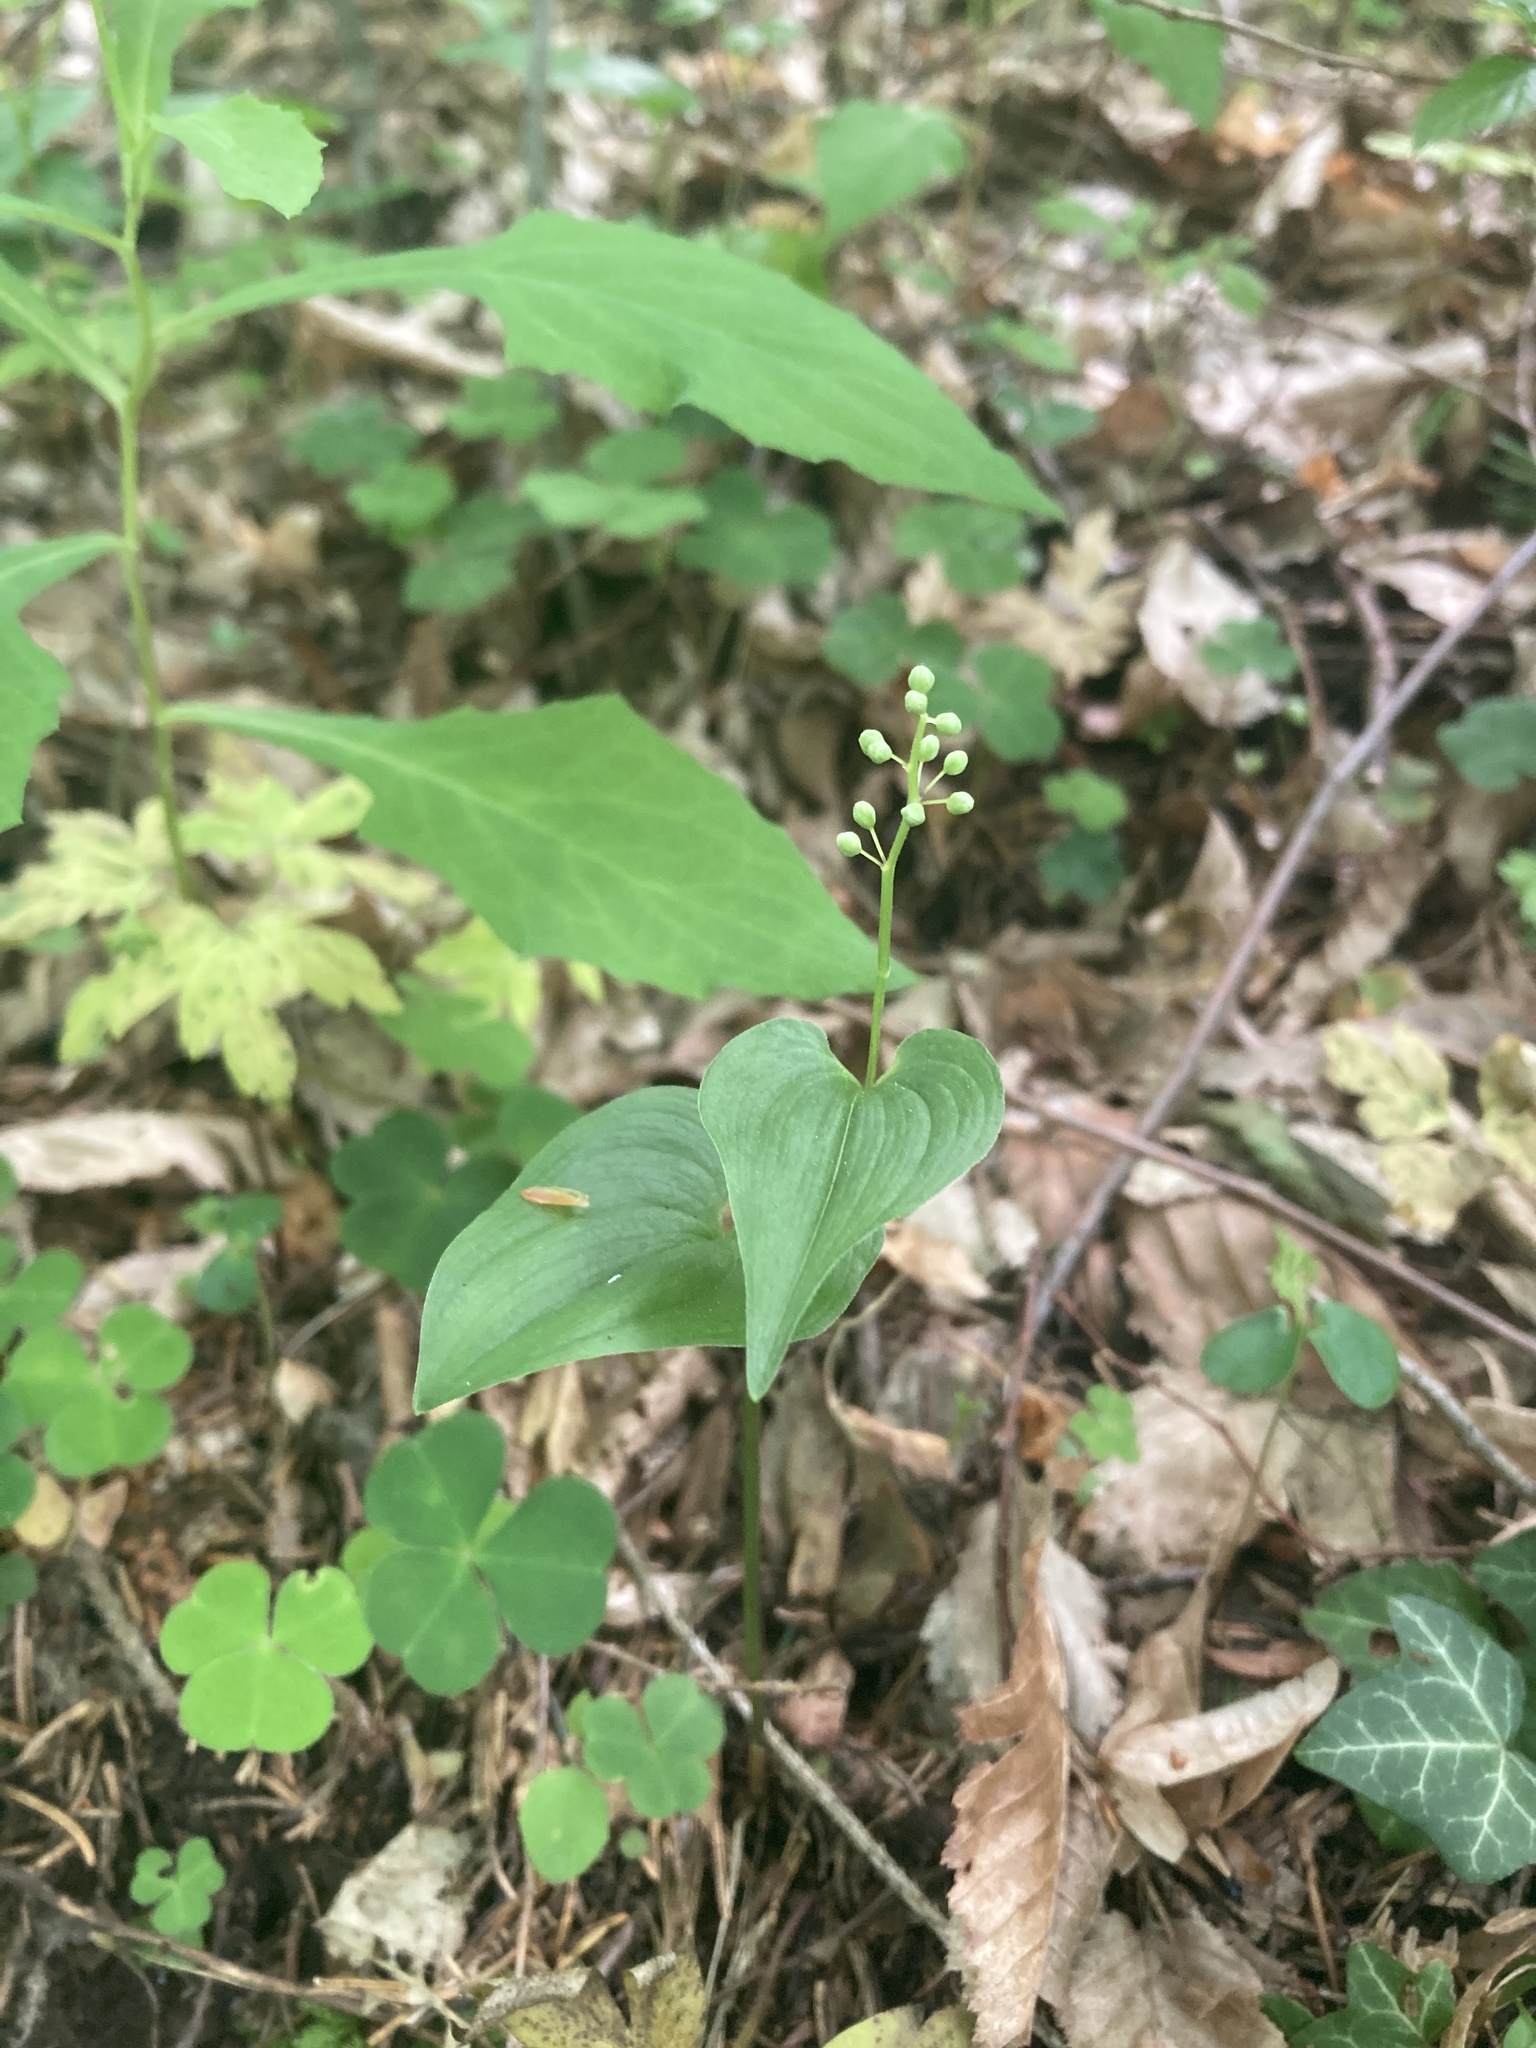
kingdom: Plantae
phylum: Tracheophyta
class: Liliopsida
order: Asparagales
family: Asparagaceae
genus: Maianthemum
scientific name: Maianthemum bifolium
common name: May lily
